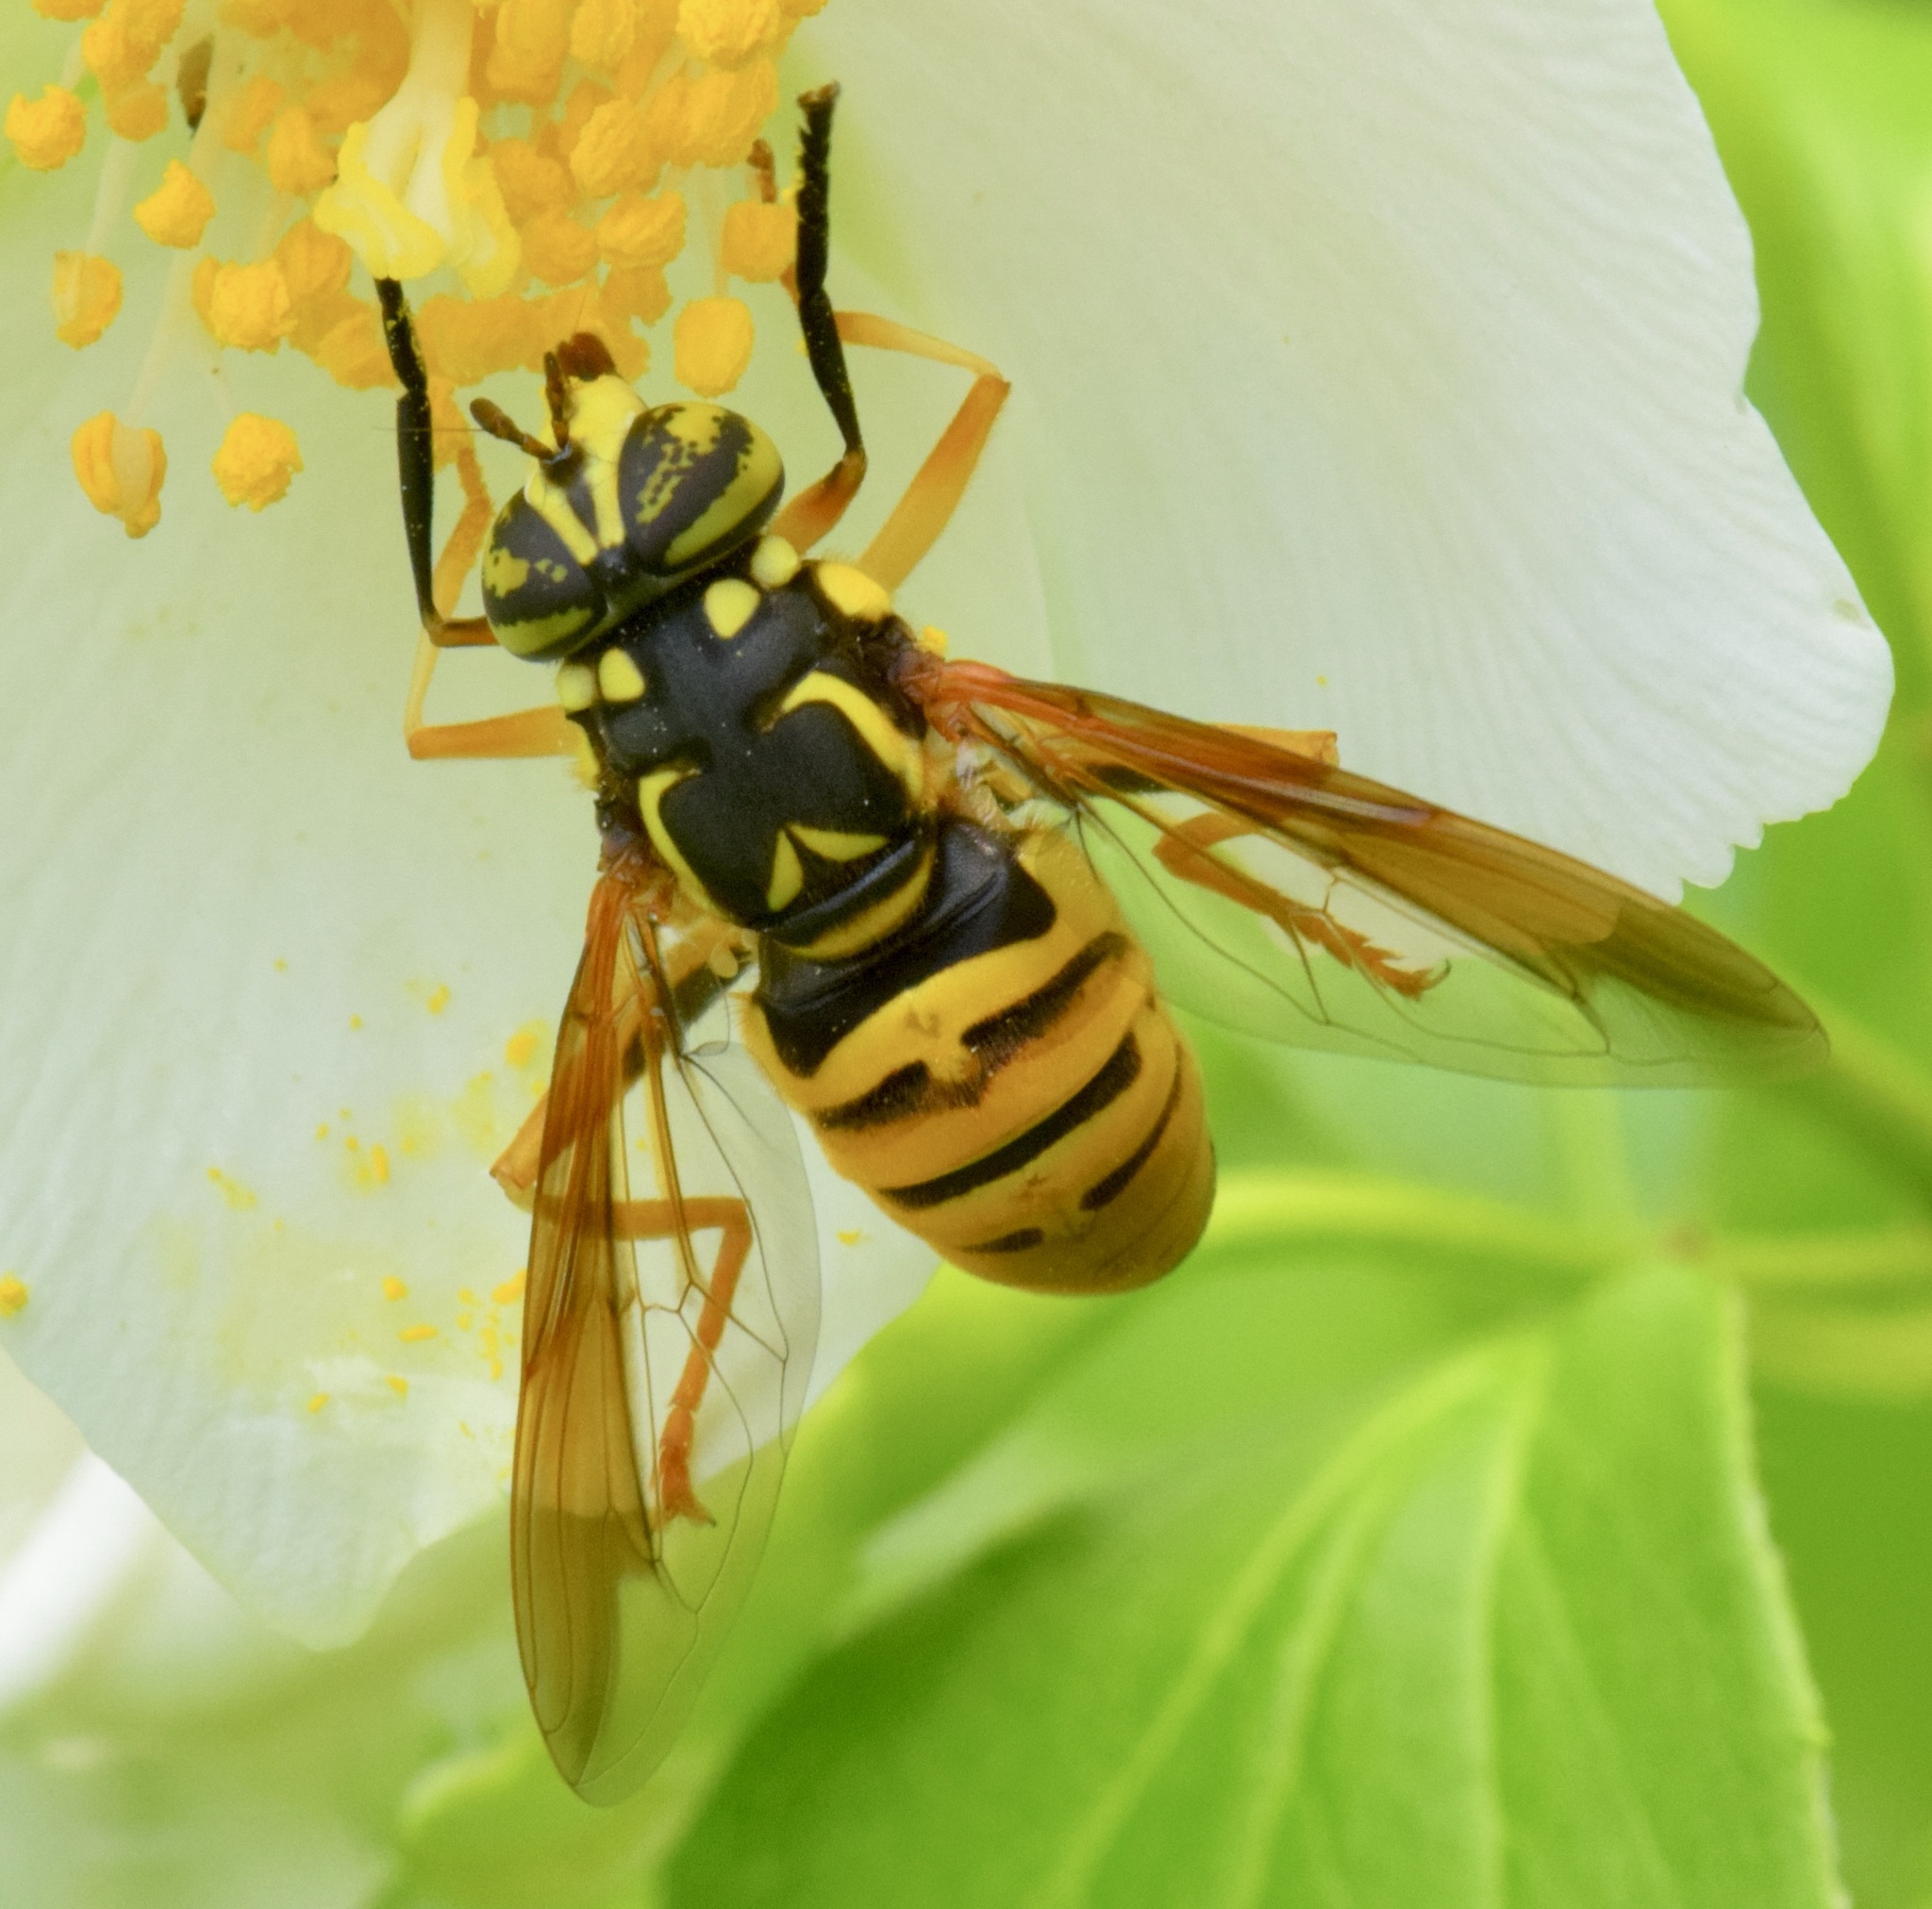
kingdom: Animalia
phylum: Arthropoda
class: Insecta
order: Diptera
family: Syrphidae
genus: Spilomyia
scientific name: Spilomyia alcimus
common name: Broad-banded hornet fly
